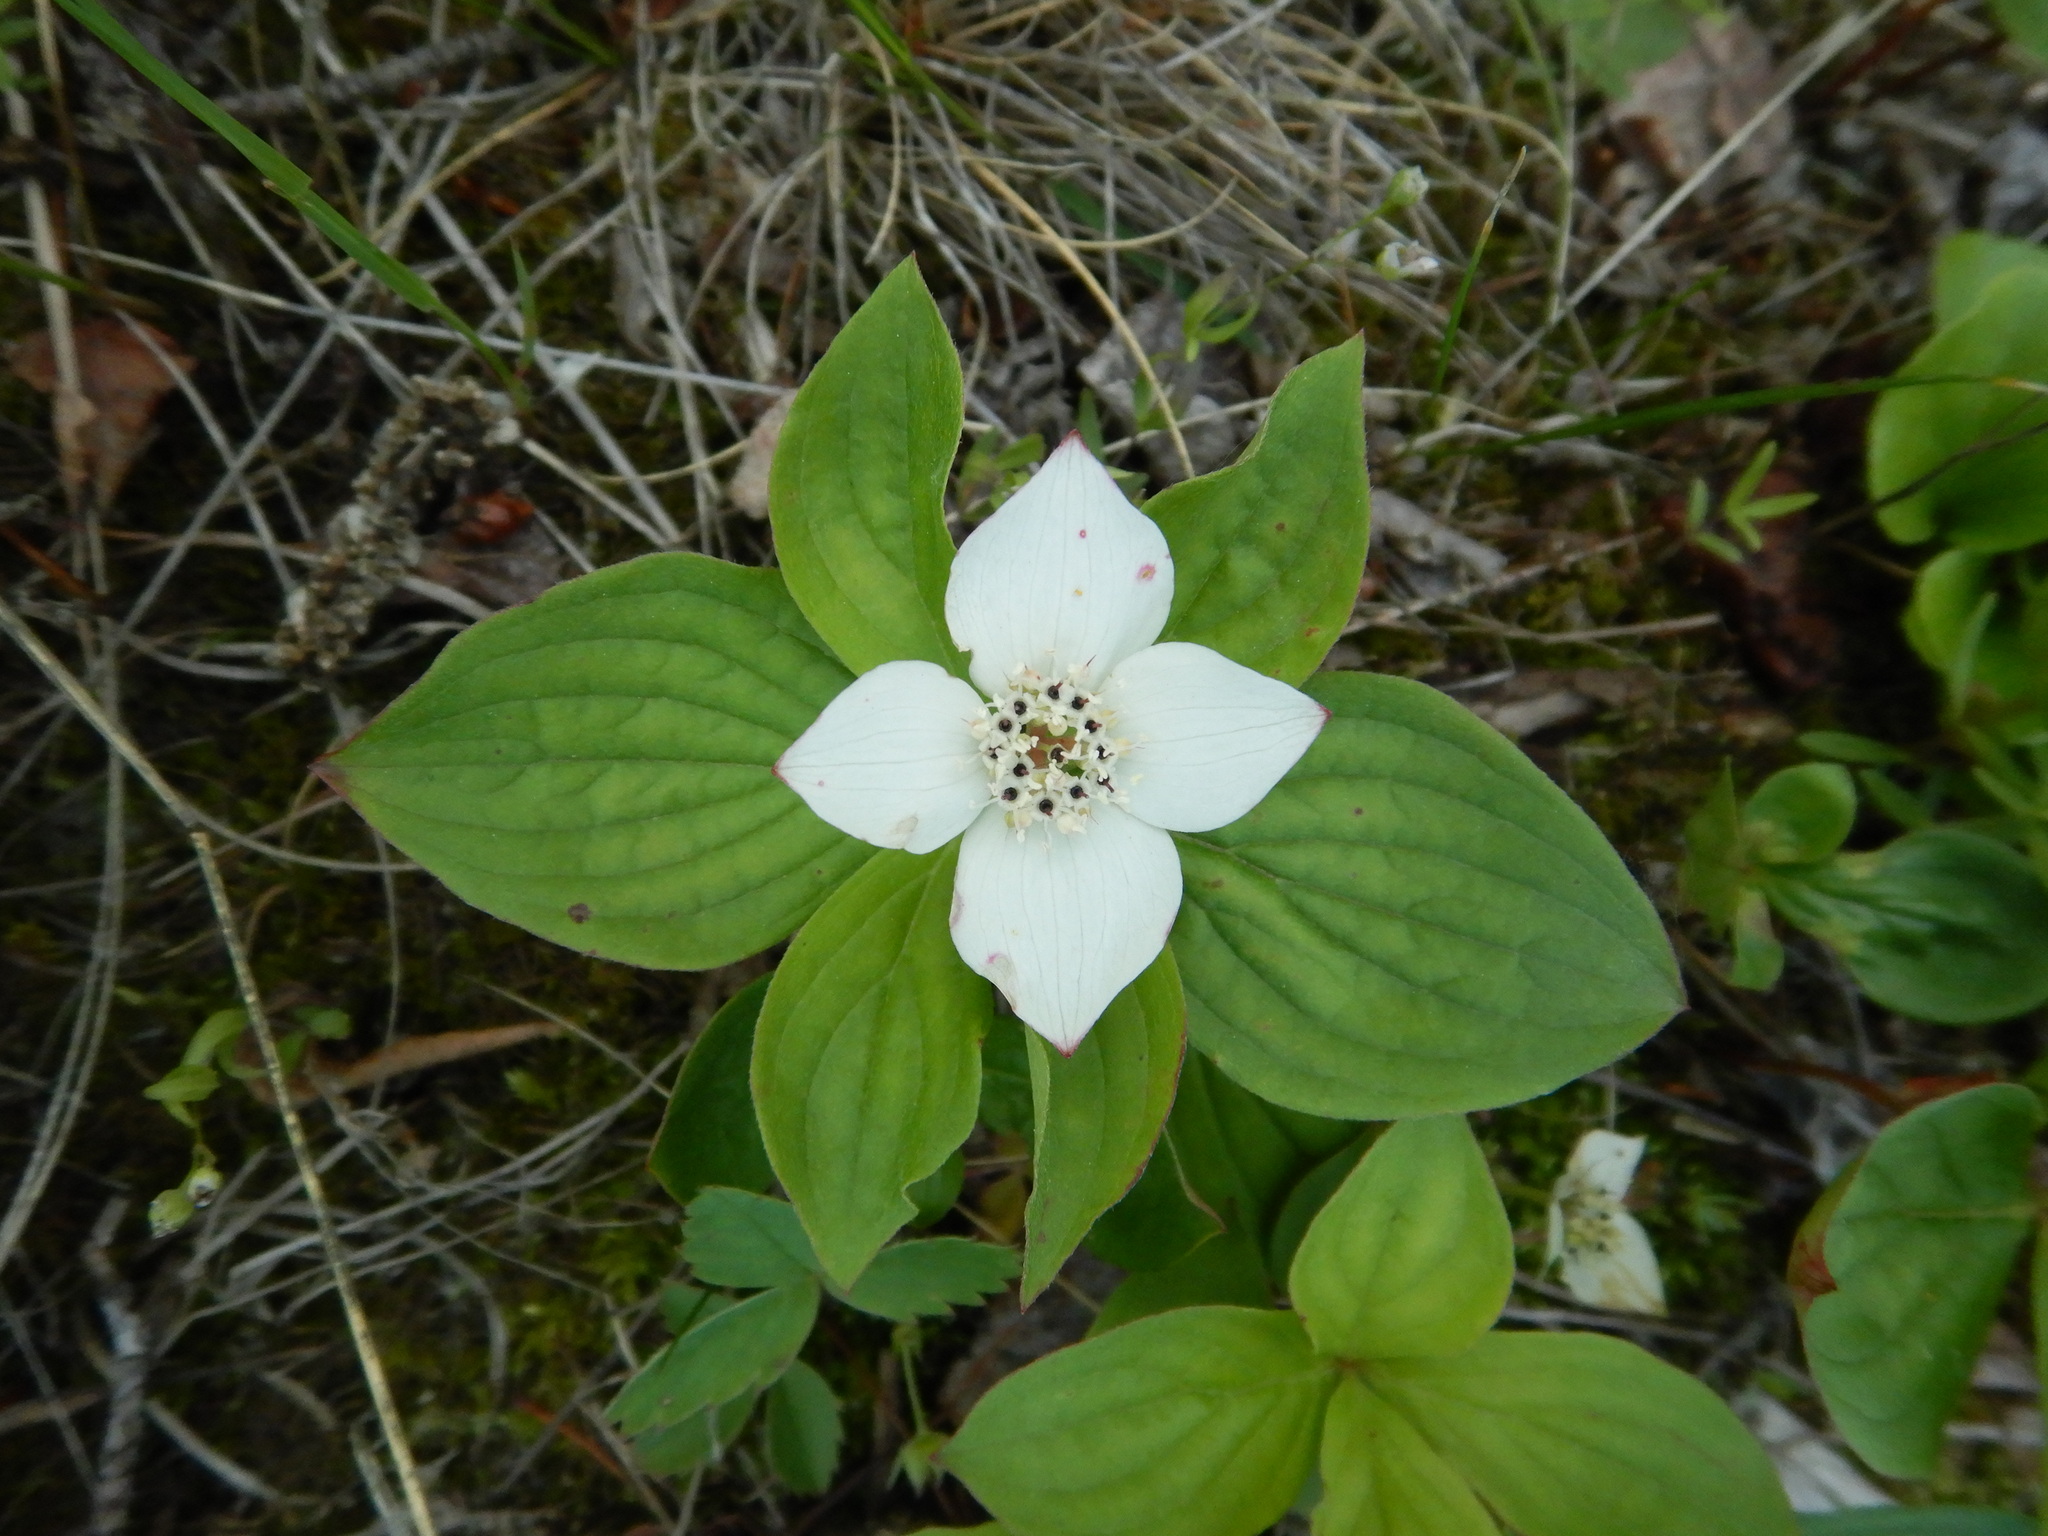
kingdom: Plantae
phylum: Tracheophyta
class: Magnoliopsida
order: Cornales
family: Cornaceae
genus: Cornus
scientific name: Cornus canadensis
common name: Creeping dogwood
